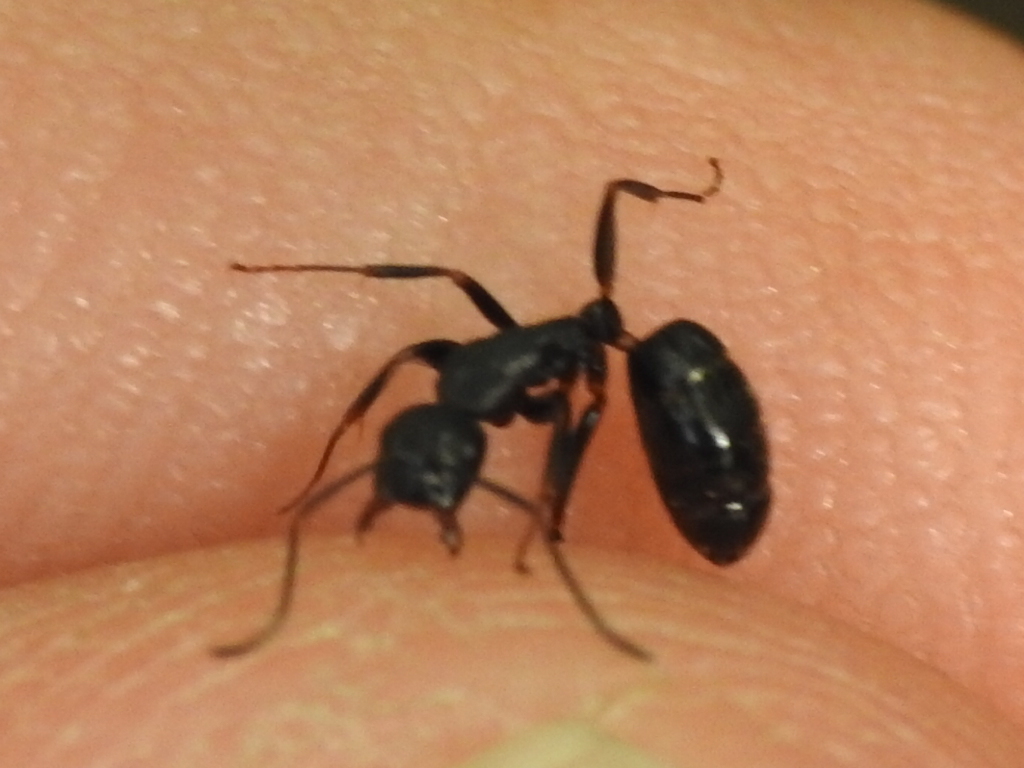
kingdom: Animalia
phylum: Arthropoda
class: Insecta
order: Hymenoptera
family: Formicidae
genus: Camponotus
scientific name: Camponotus nearcticus
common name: Smaller carpenter ant
